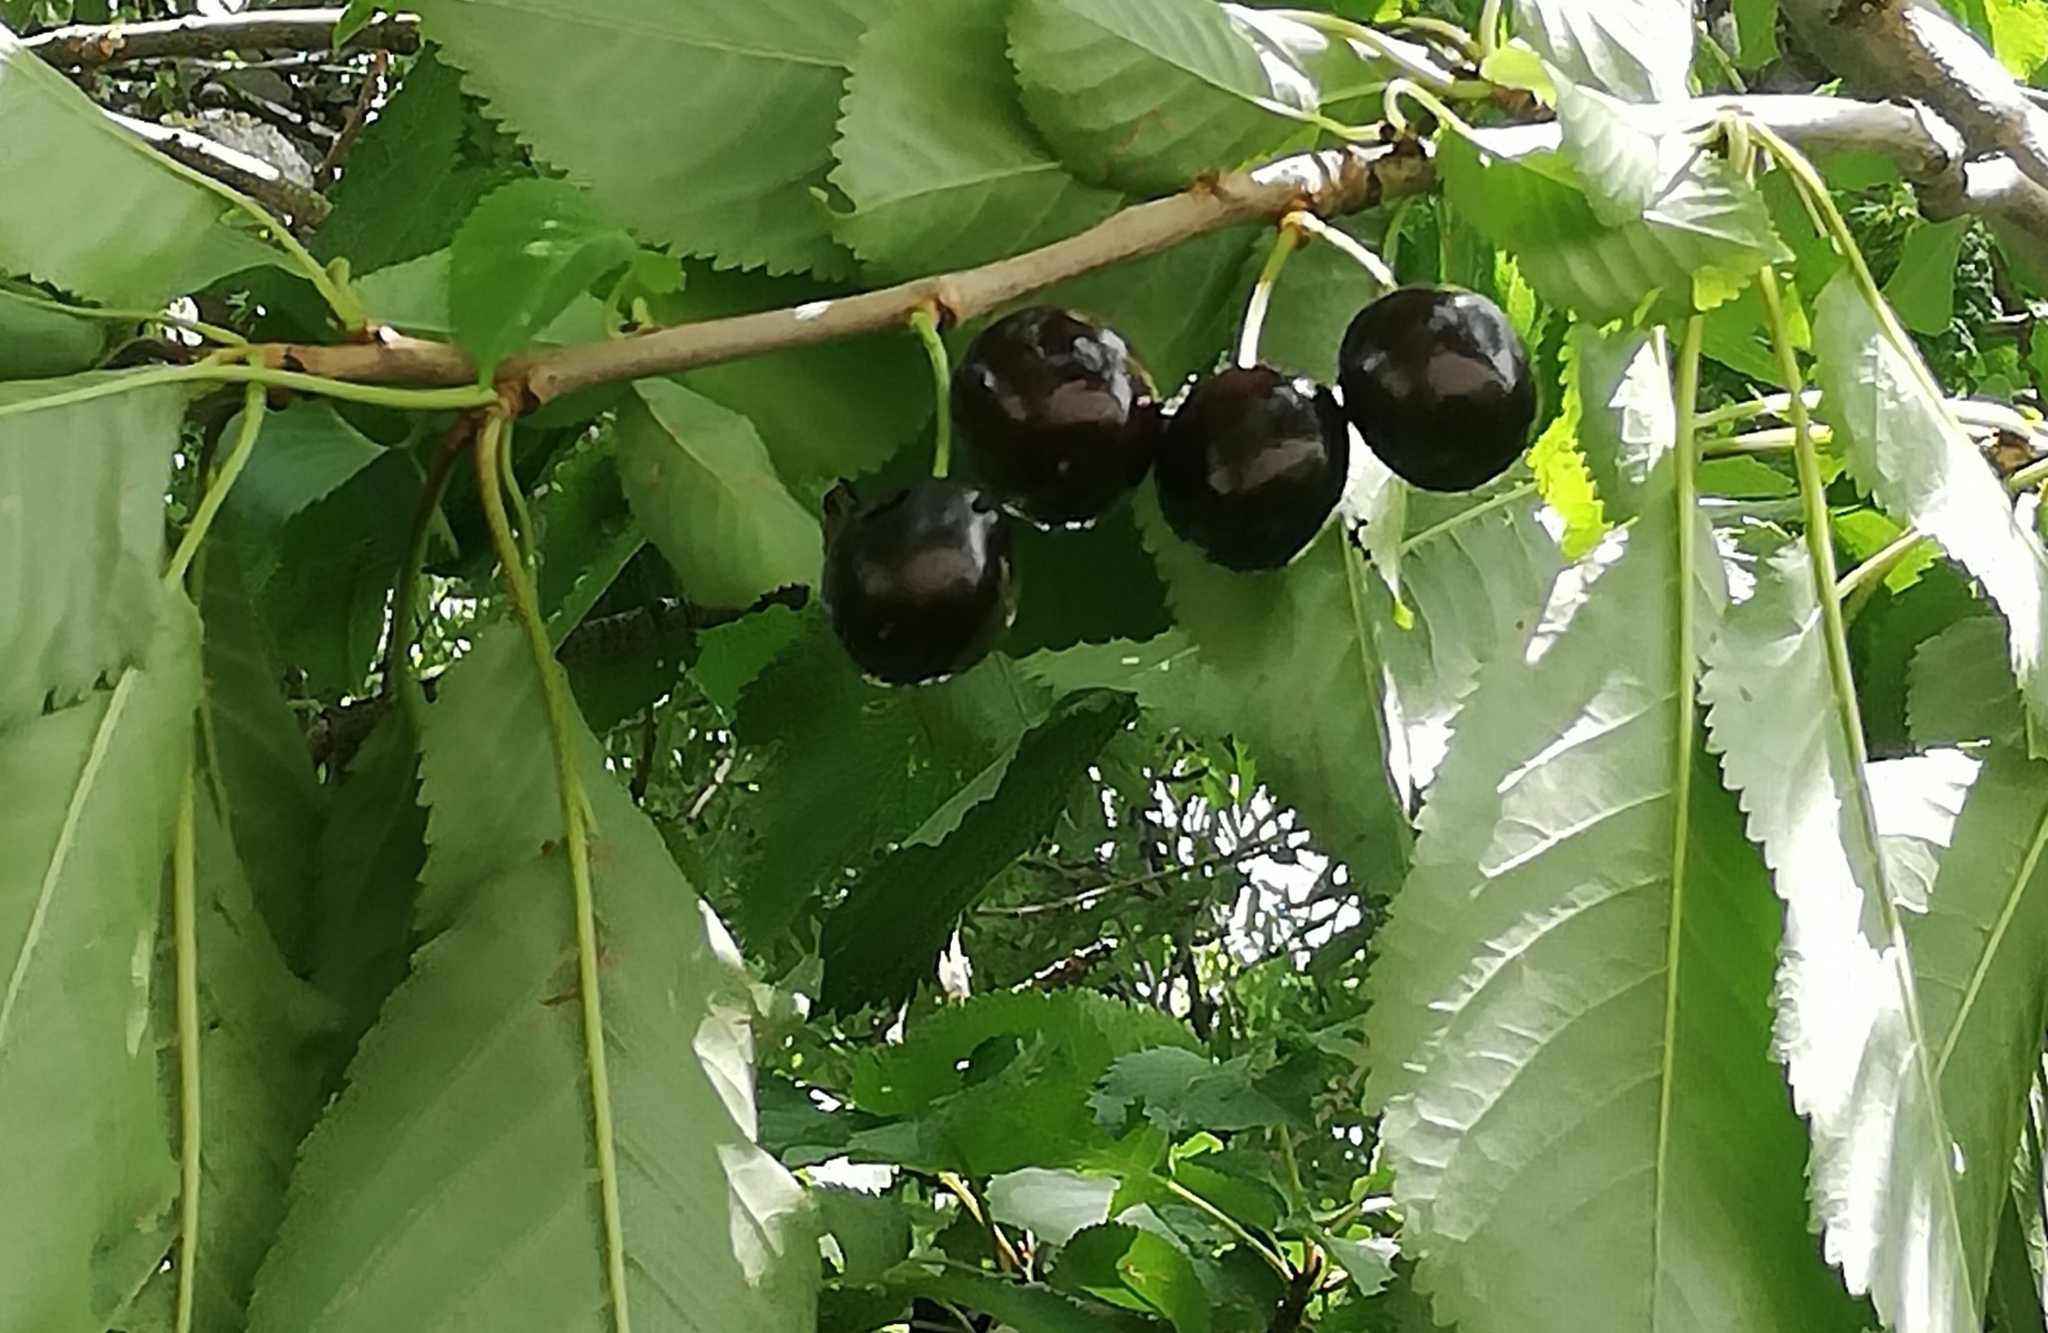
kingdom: Plantae
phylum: Tracheophyta
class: Magnoliopsida
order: Rosales
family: Rosaceae
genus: Prunus
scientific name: Prunus avium
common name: Sweet cherry
